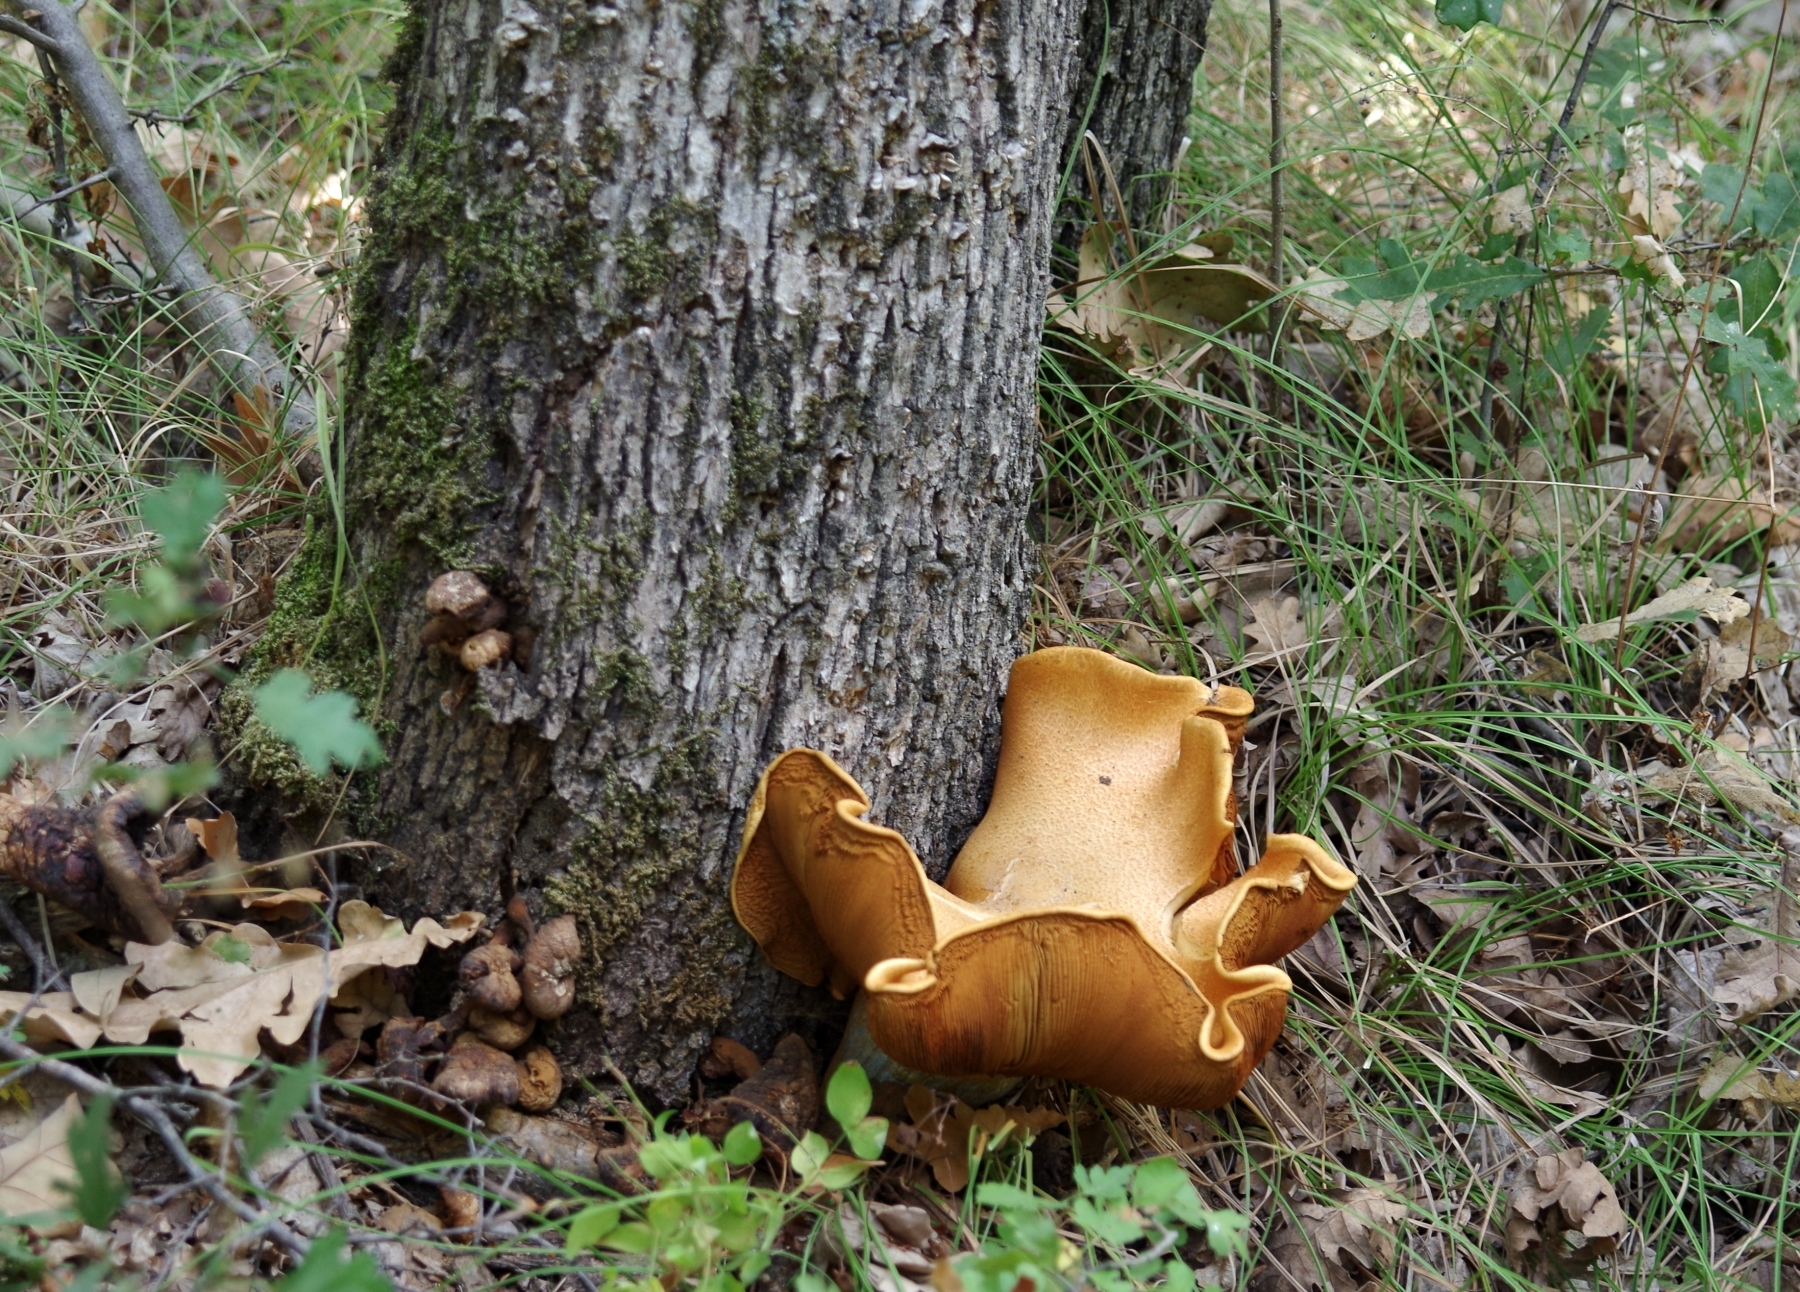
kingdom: Fungi
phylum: Basidiomycota
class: Agaricomycetes
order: Gloeophyllales
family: Gloeophyllaceae
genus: Neolentinus
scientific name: Neolentinus lepideus
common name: Scaly sawgill
